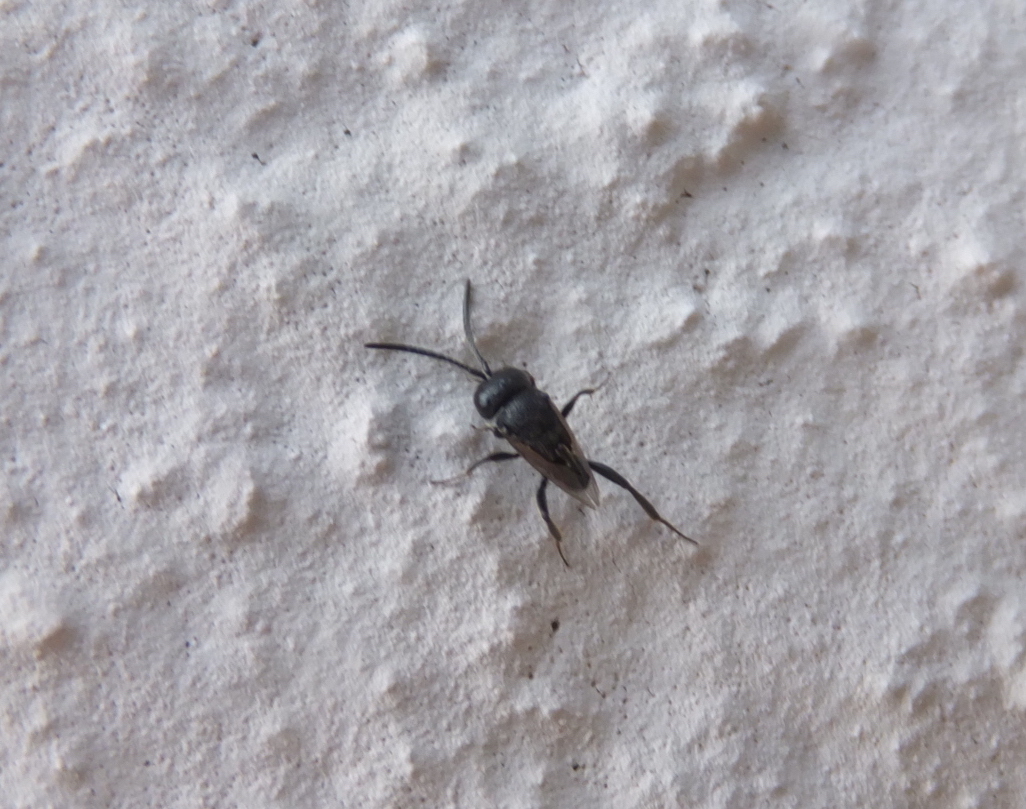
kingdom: Animalia
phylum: Arthropoda
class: Insecta
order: Hymenoptera
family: Evaniidae
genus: Brachygaster
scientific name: Brachygaster minutus
